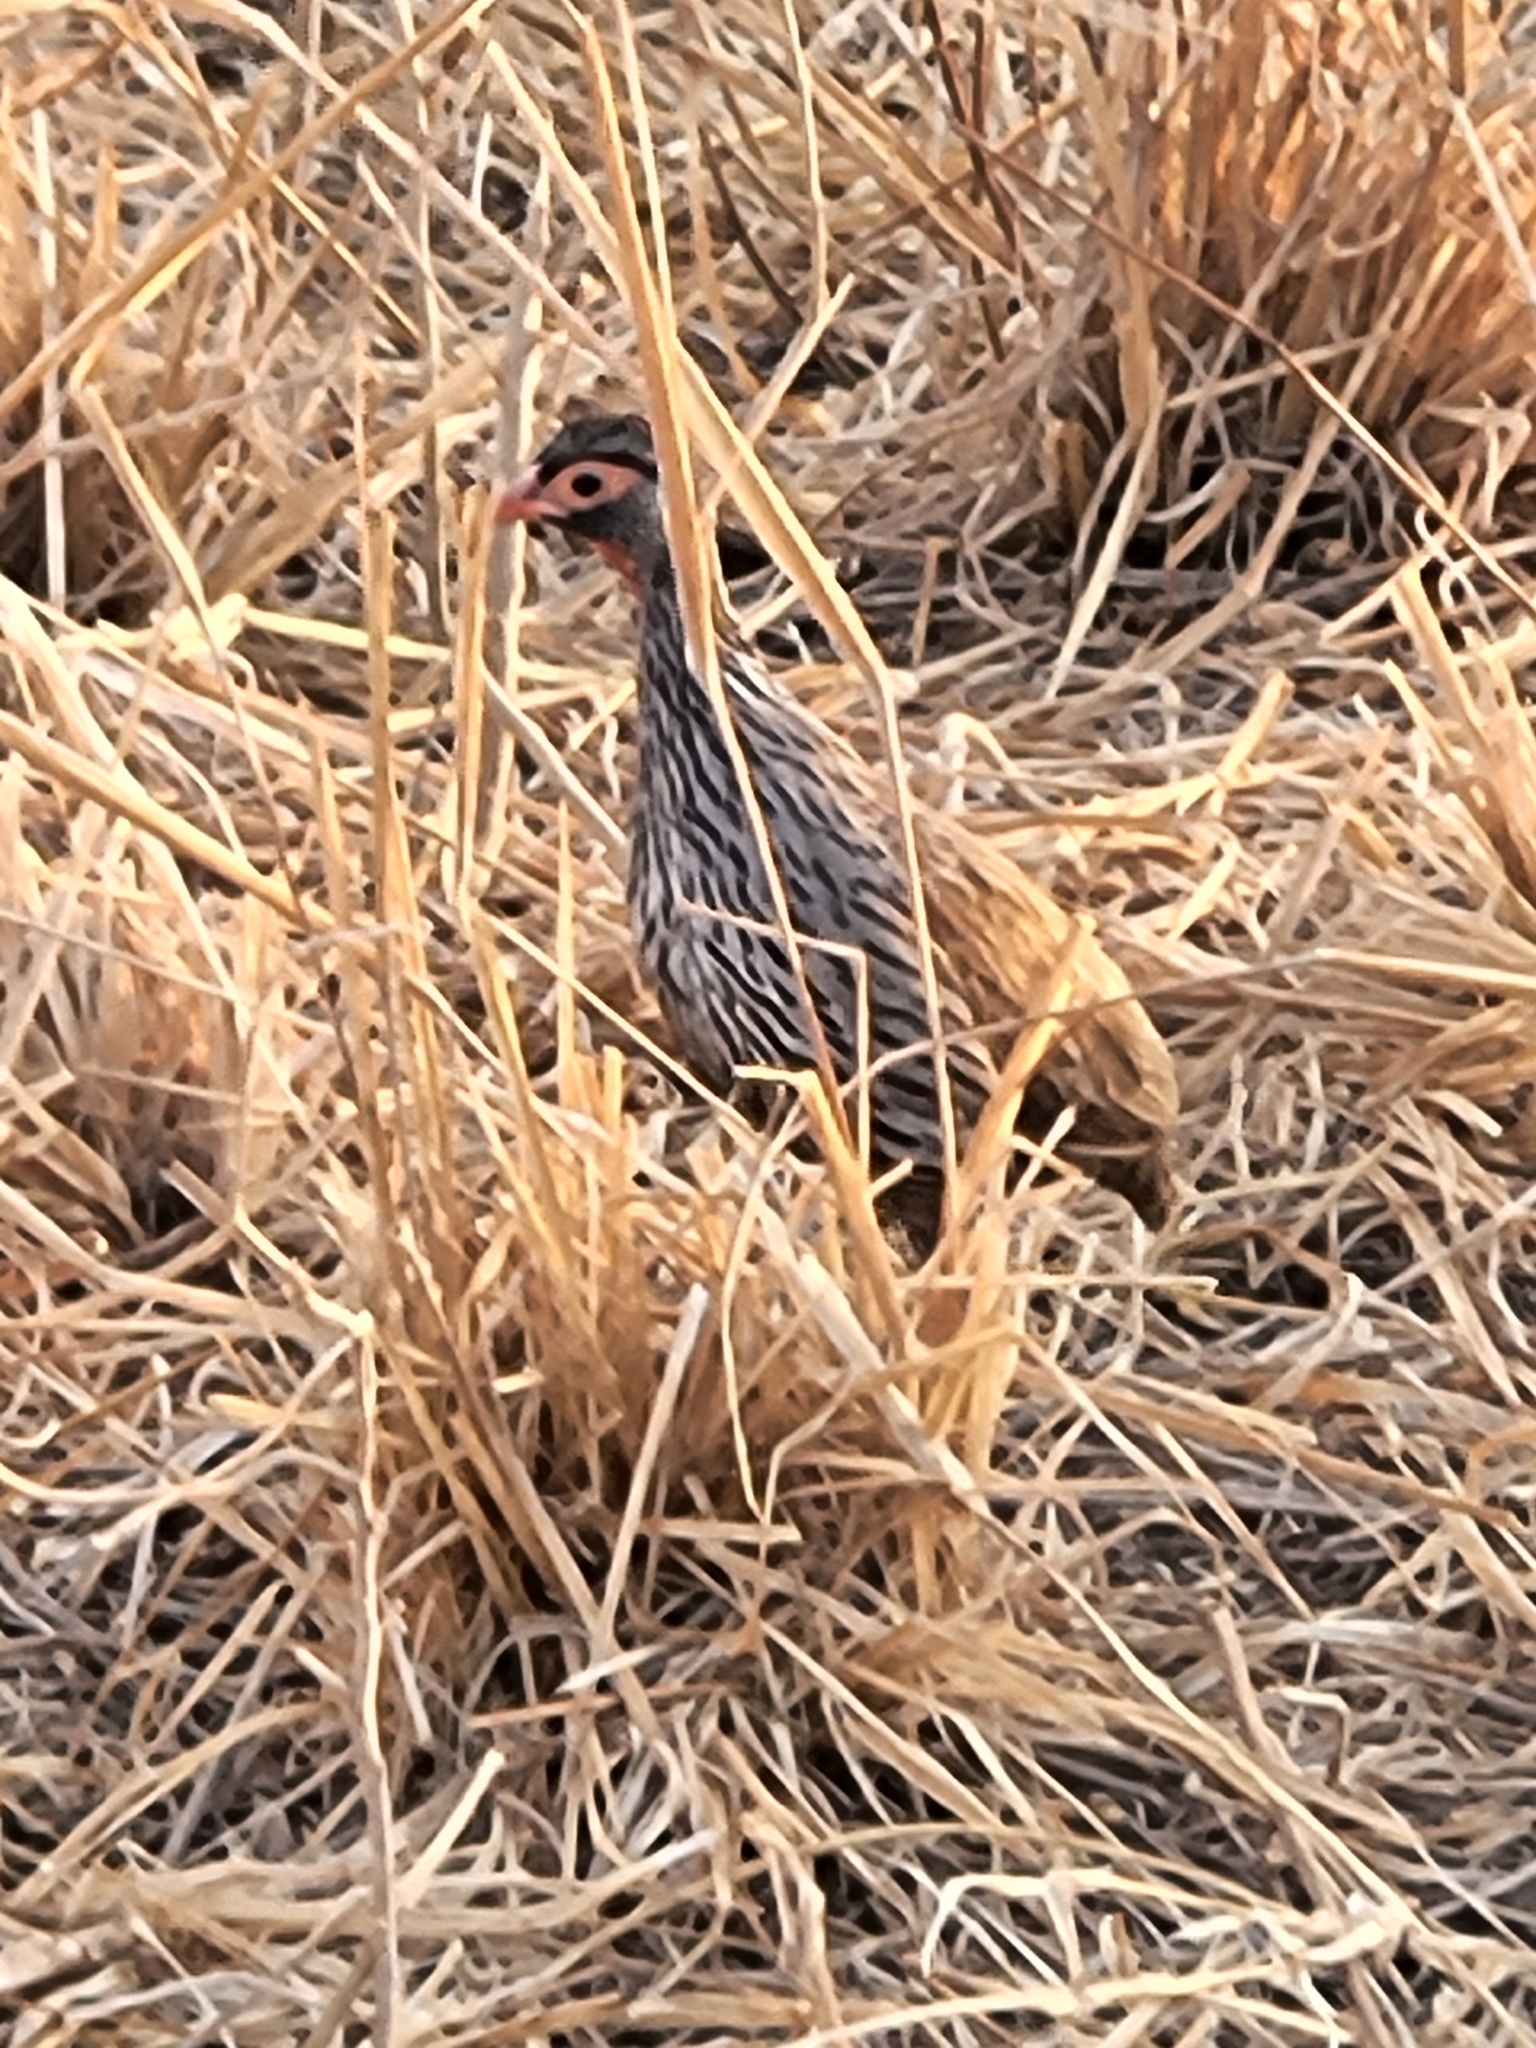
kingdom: Animalia
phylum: Chordata
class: Aves
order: Galliformes
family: Phasianidae
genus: Pternistis
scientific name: Pternistis afer
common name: Red-necked spurfowl
